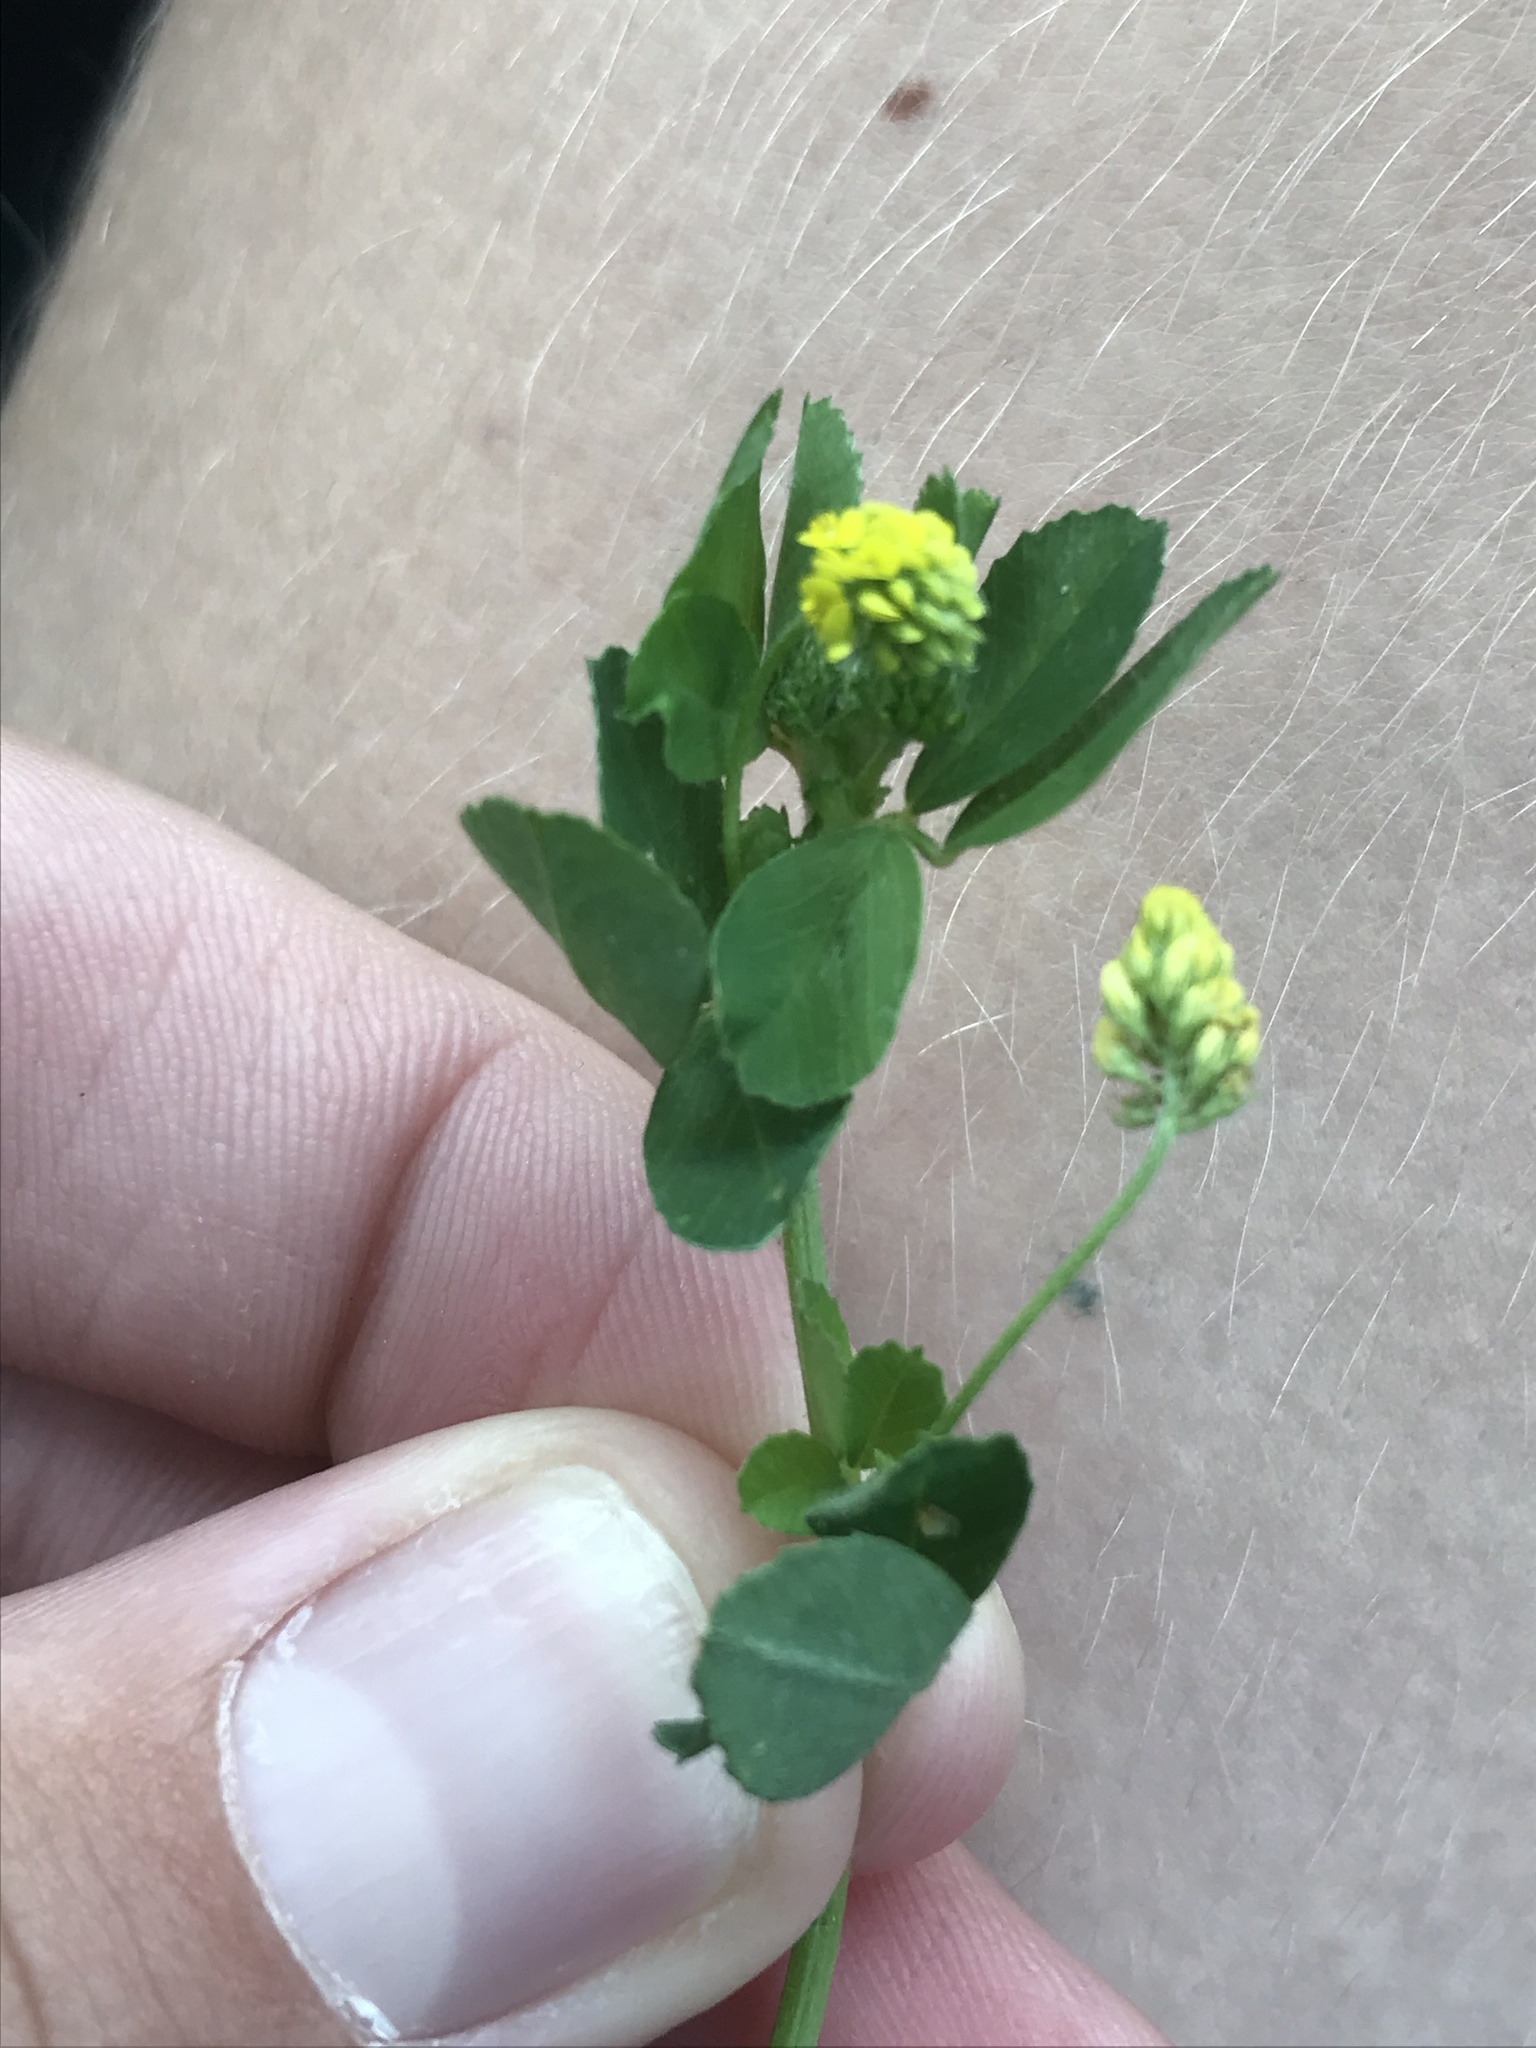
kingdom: Plantae
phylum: Tracheophyta
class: Magnoliopsida
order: Fabales
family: Fabaceae
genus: Medicago
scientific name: Medicago lupulina
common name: Black medick
